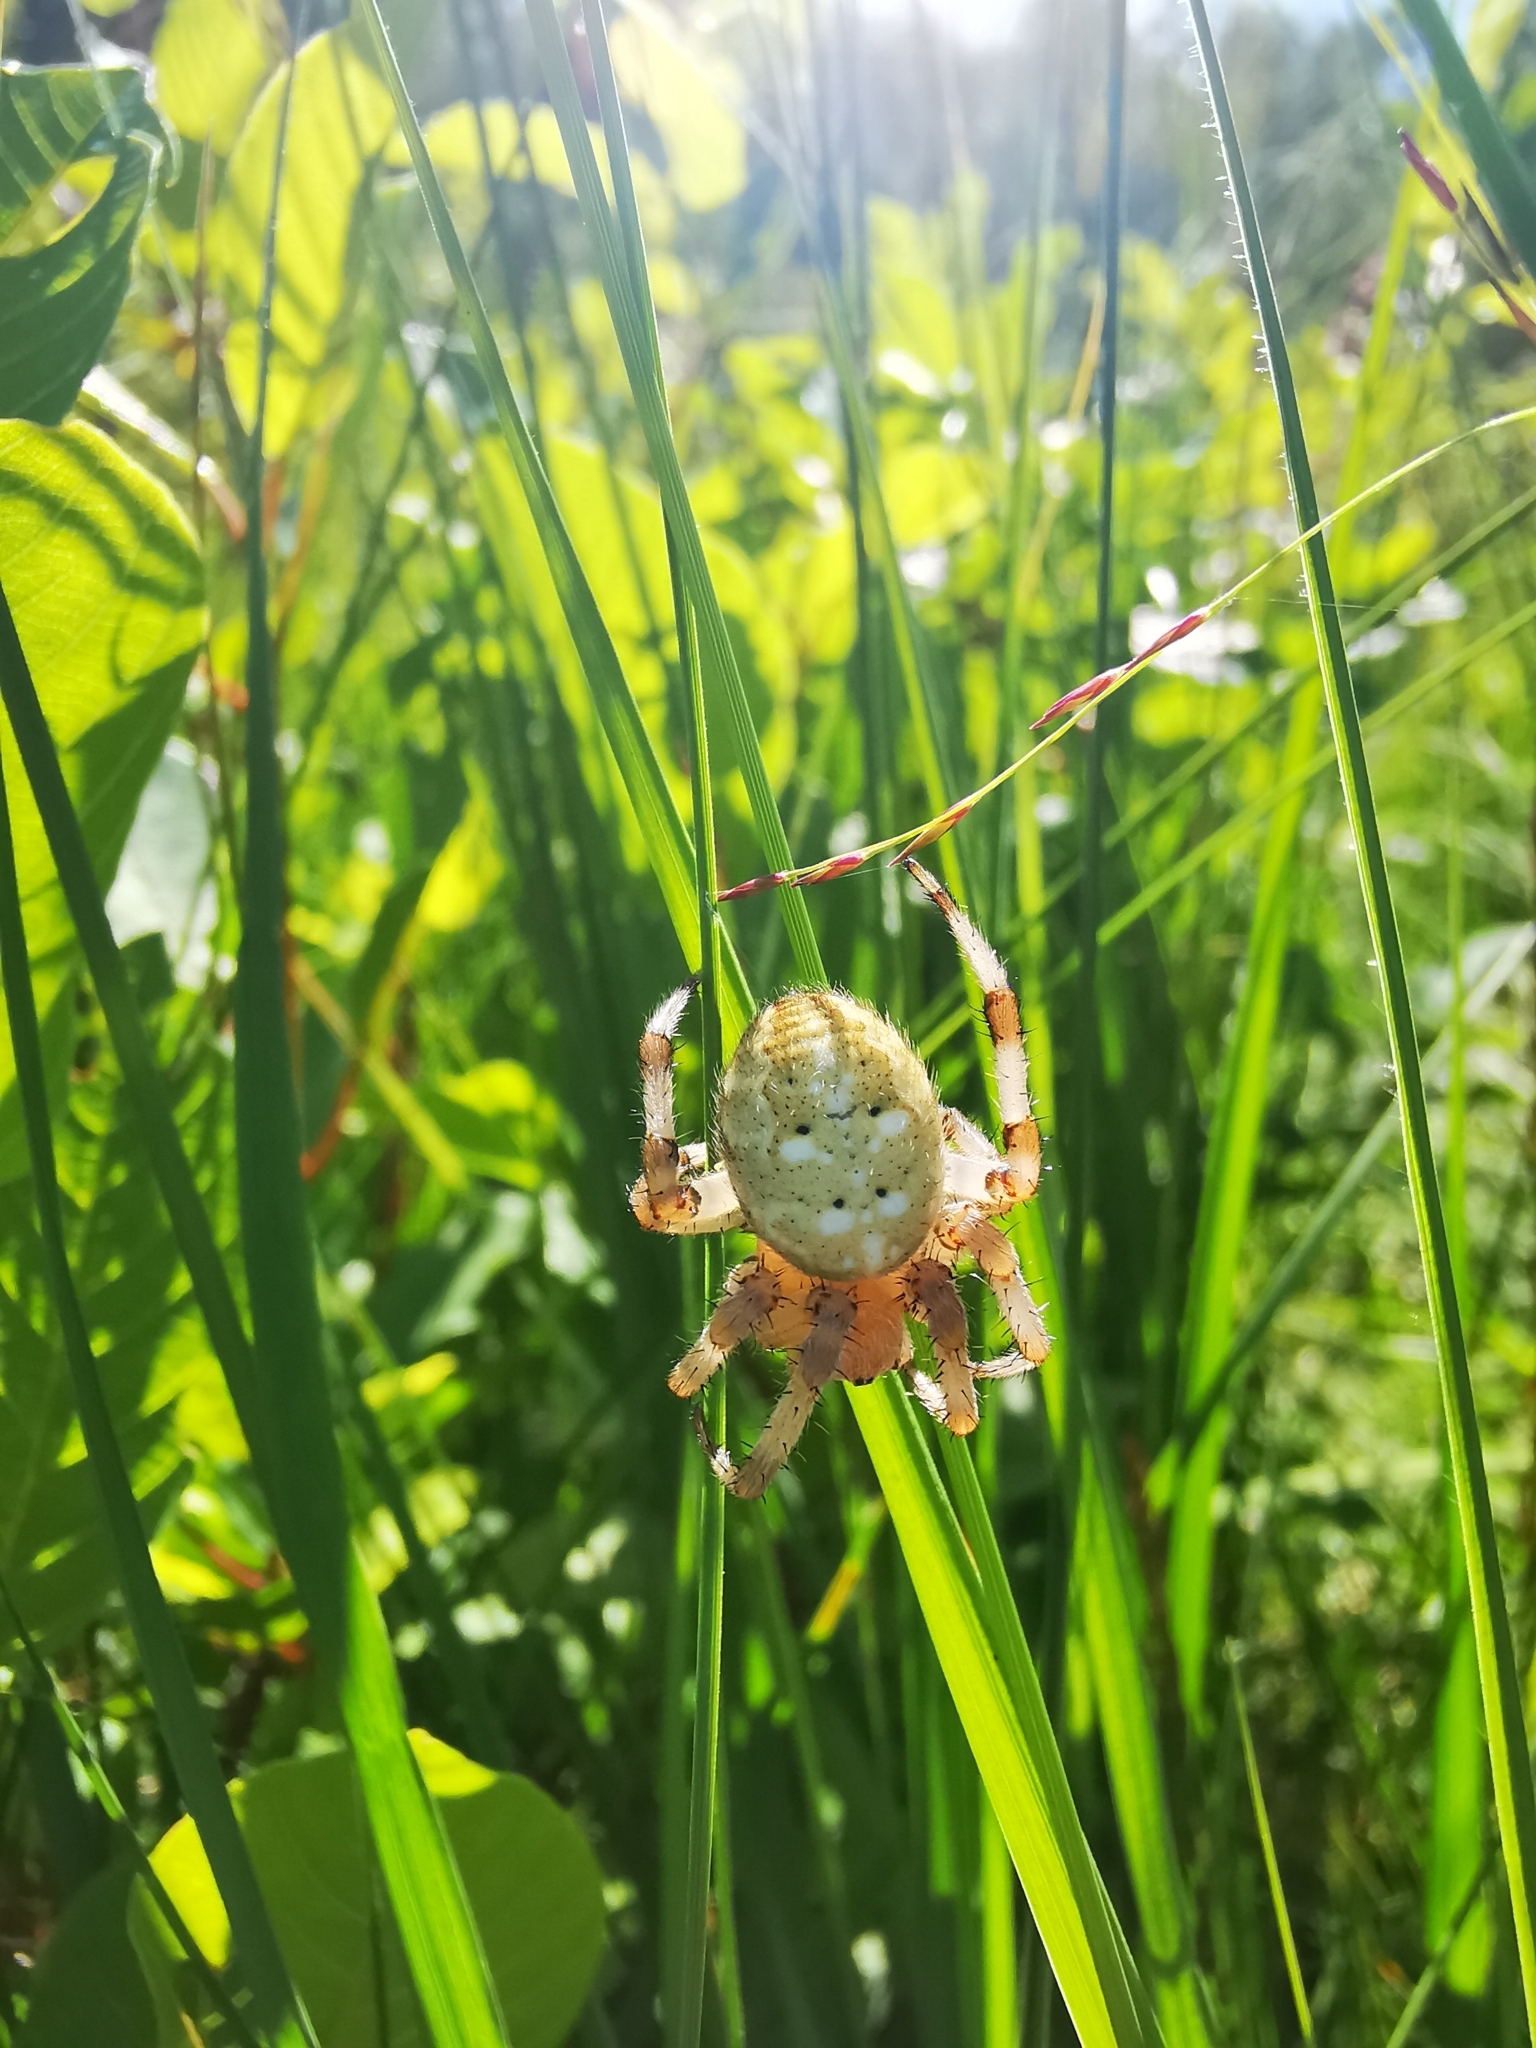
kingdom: Animalia
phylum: Arthropoda
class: Arachnida
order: Araneae
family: Araneidae
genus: Araneus
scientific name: Araneus quadratus
